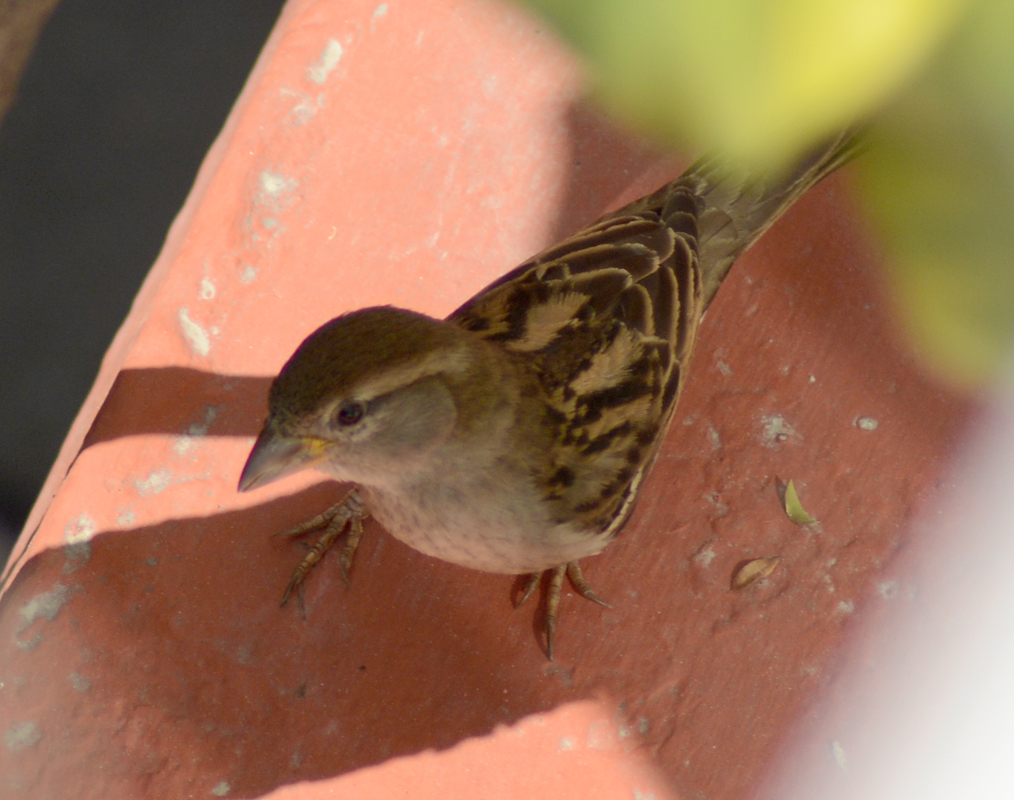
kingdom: Animalia
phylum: Chordata
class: Aves
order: Passeriformes
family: Passeridae
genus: Passer
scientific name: Passer domesticus
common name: House sparrow
